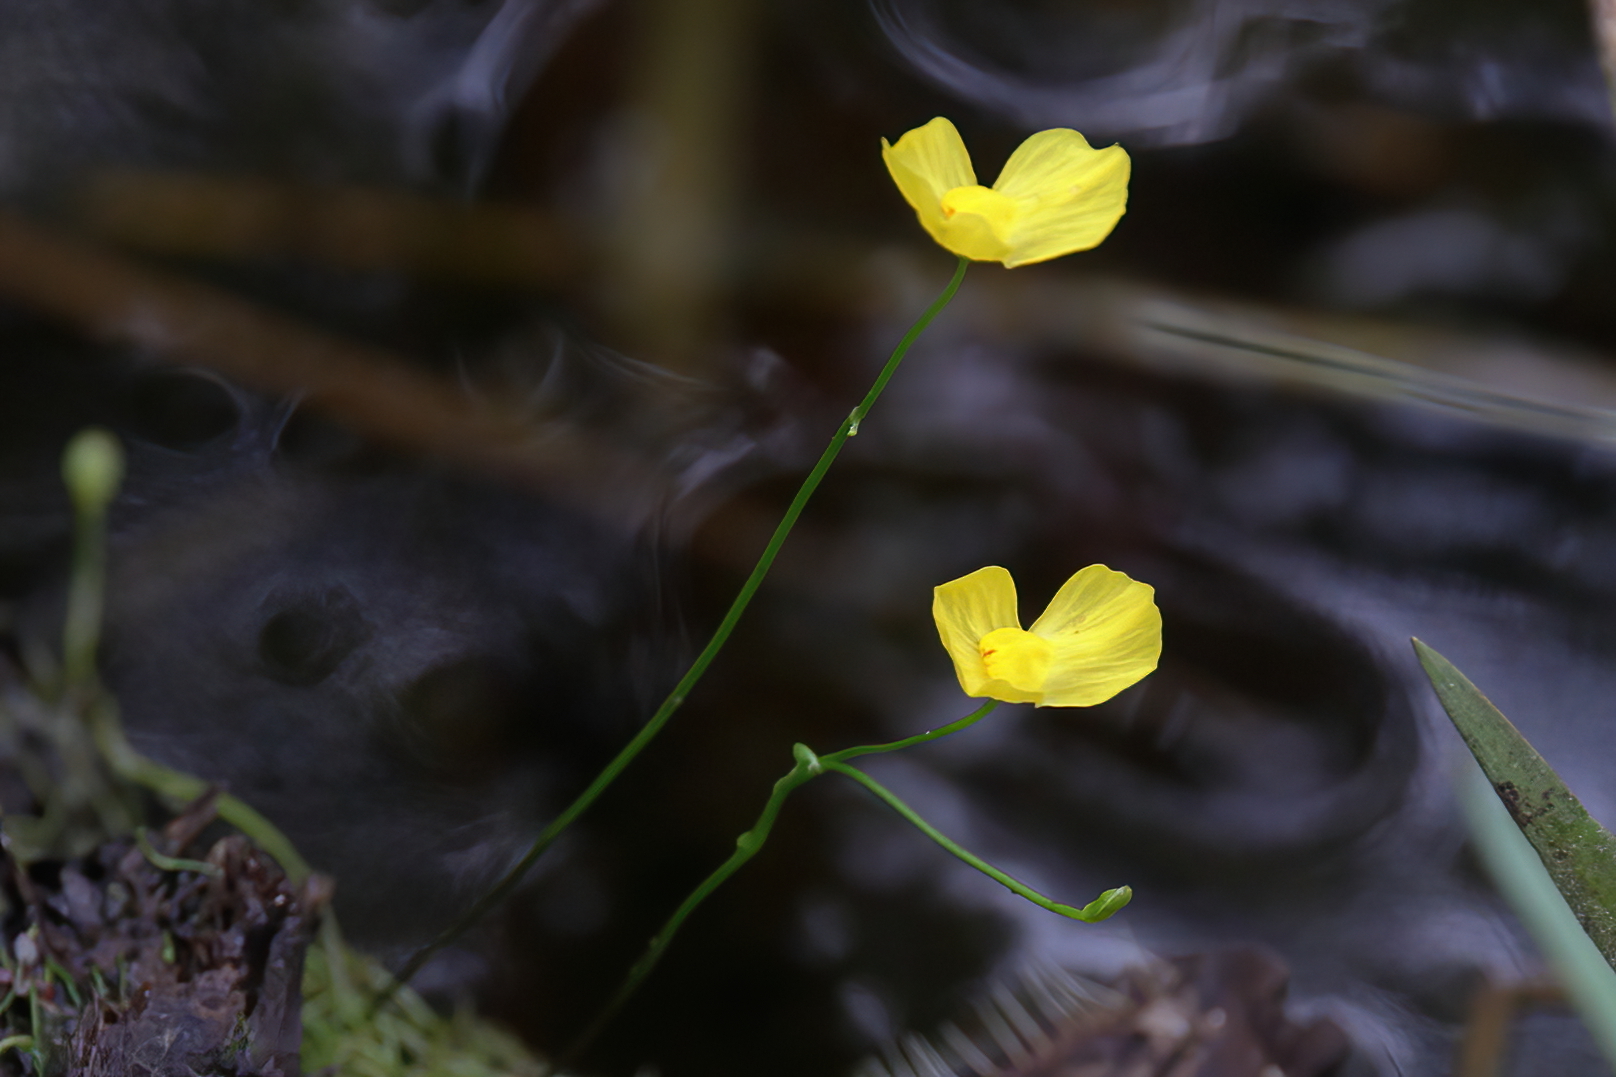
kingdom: Plantae
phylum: Tracheophyta
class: Magnoliopsida
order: Lamiales
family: Lentibulariaceae
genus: Utricularia
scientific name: Utricularia gibba
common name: Humped bladderwort
